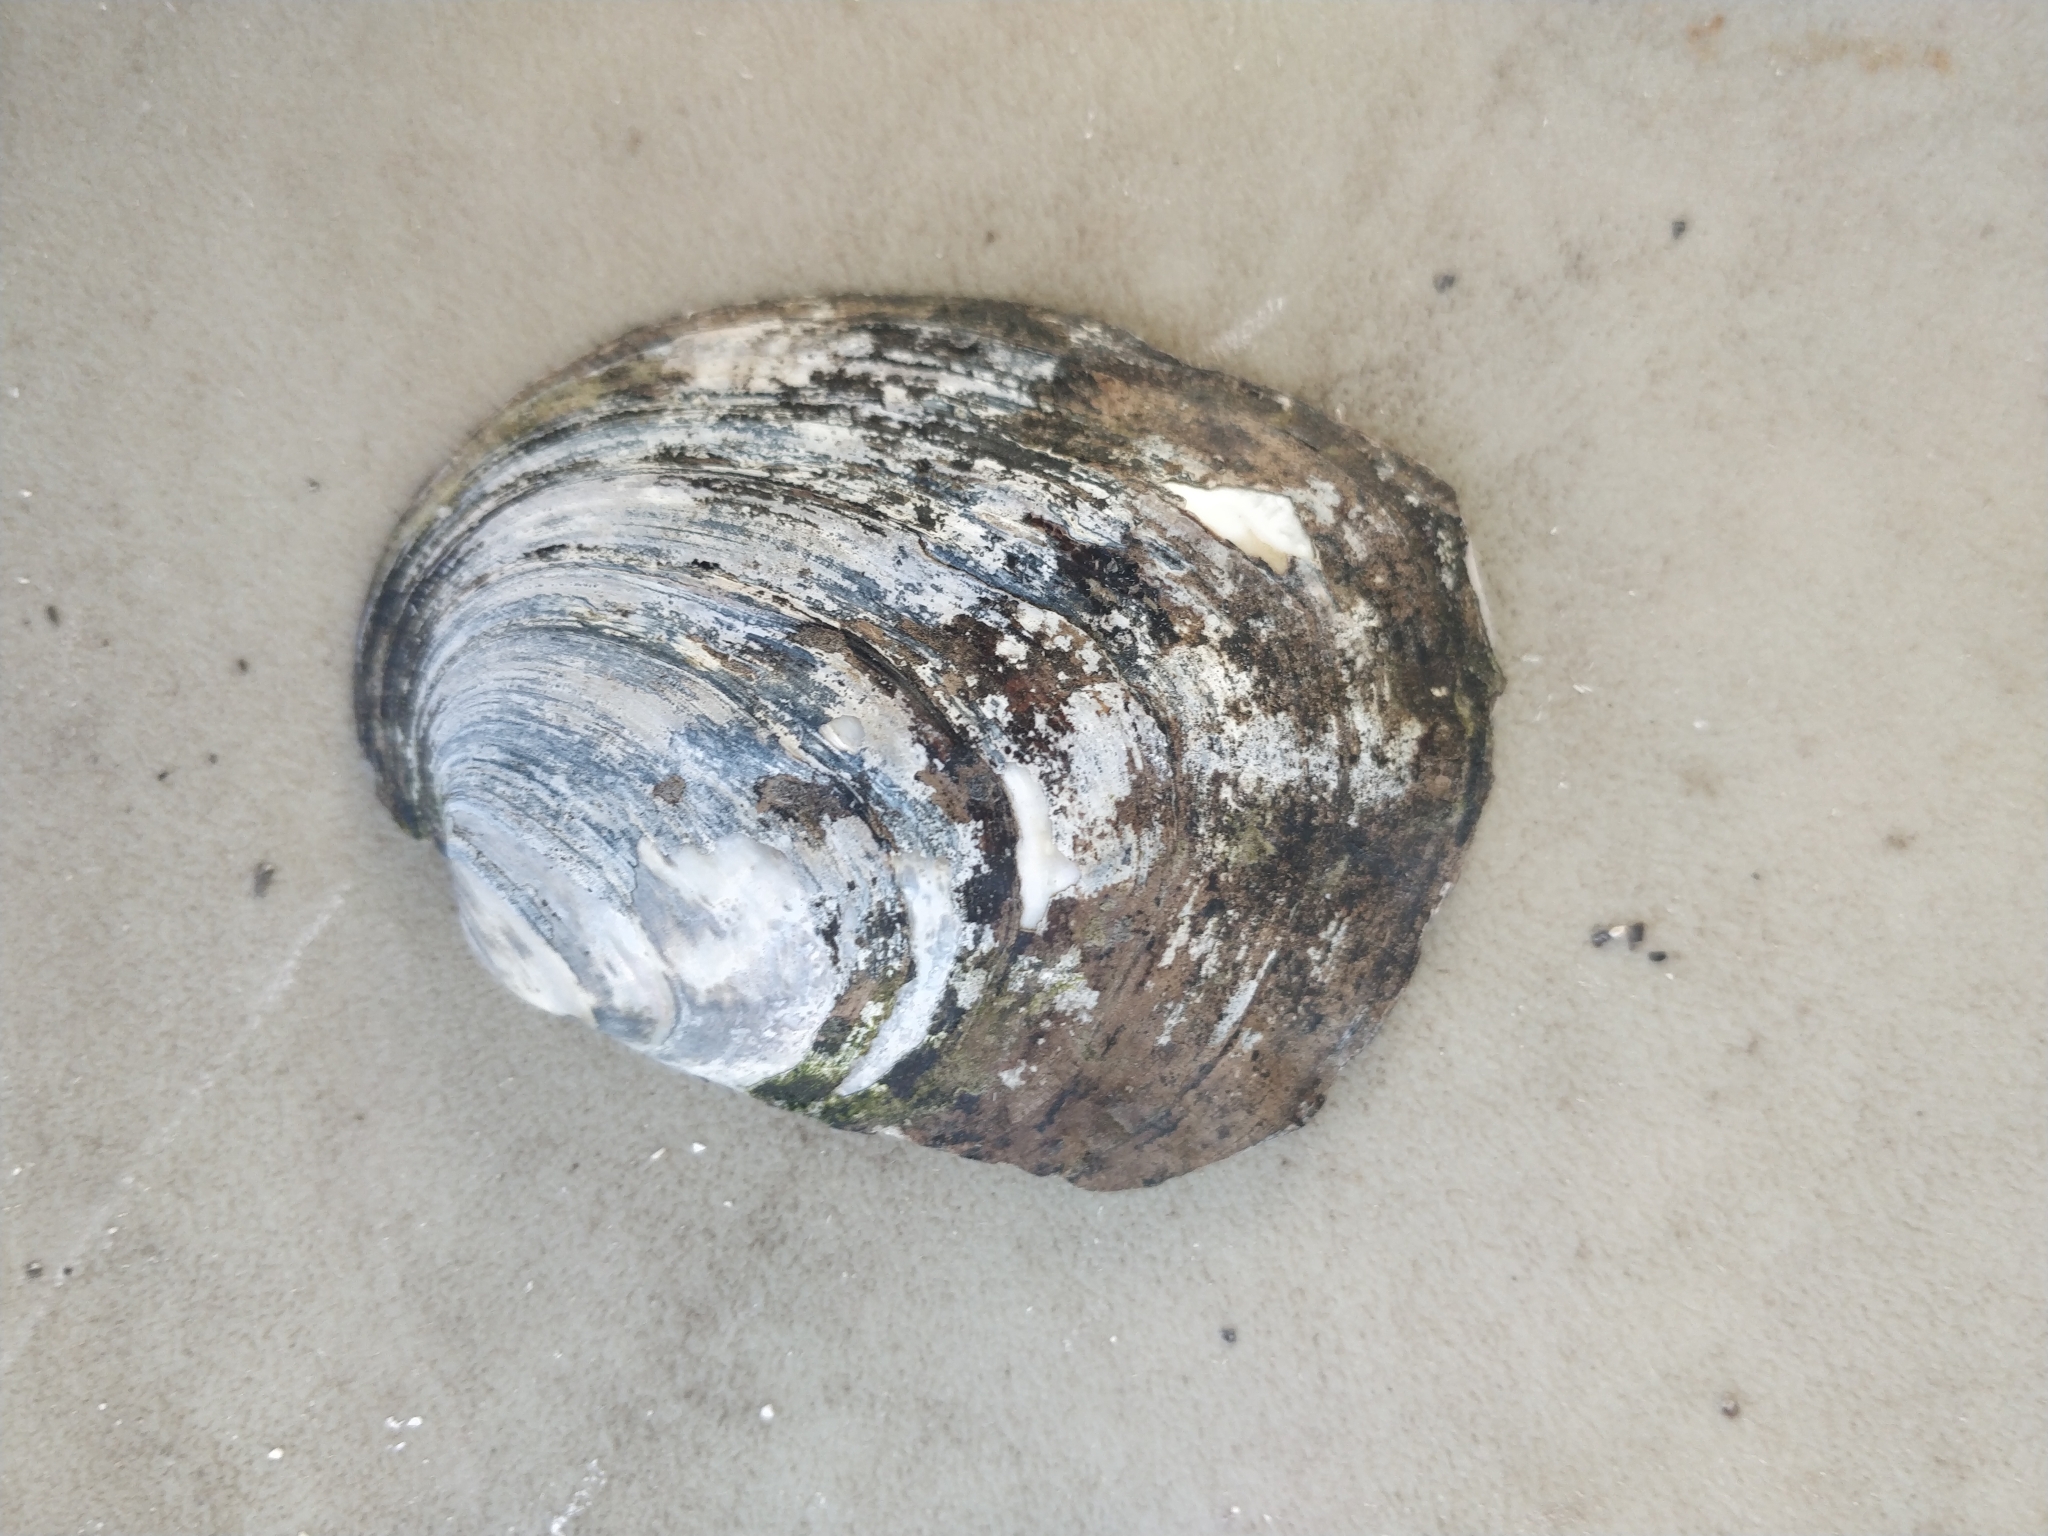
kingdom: Animalia
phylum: Mollusca
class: Bivalvia
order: Unionida
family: Unionidae
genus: Amblema
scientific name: Amblema plicata
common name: Threeridge
